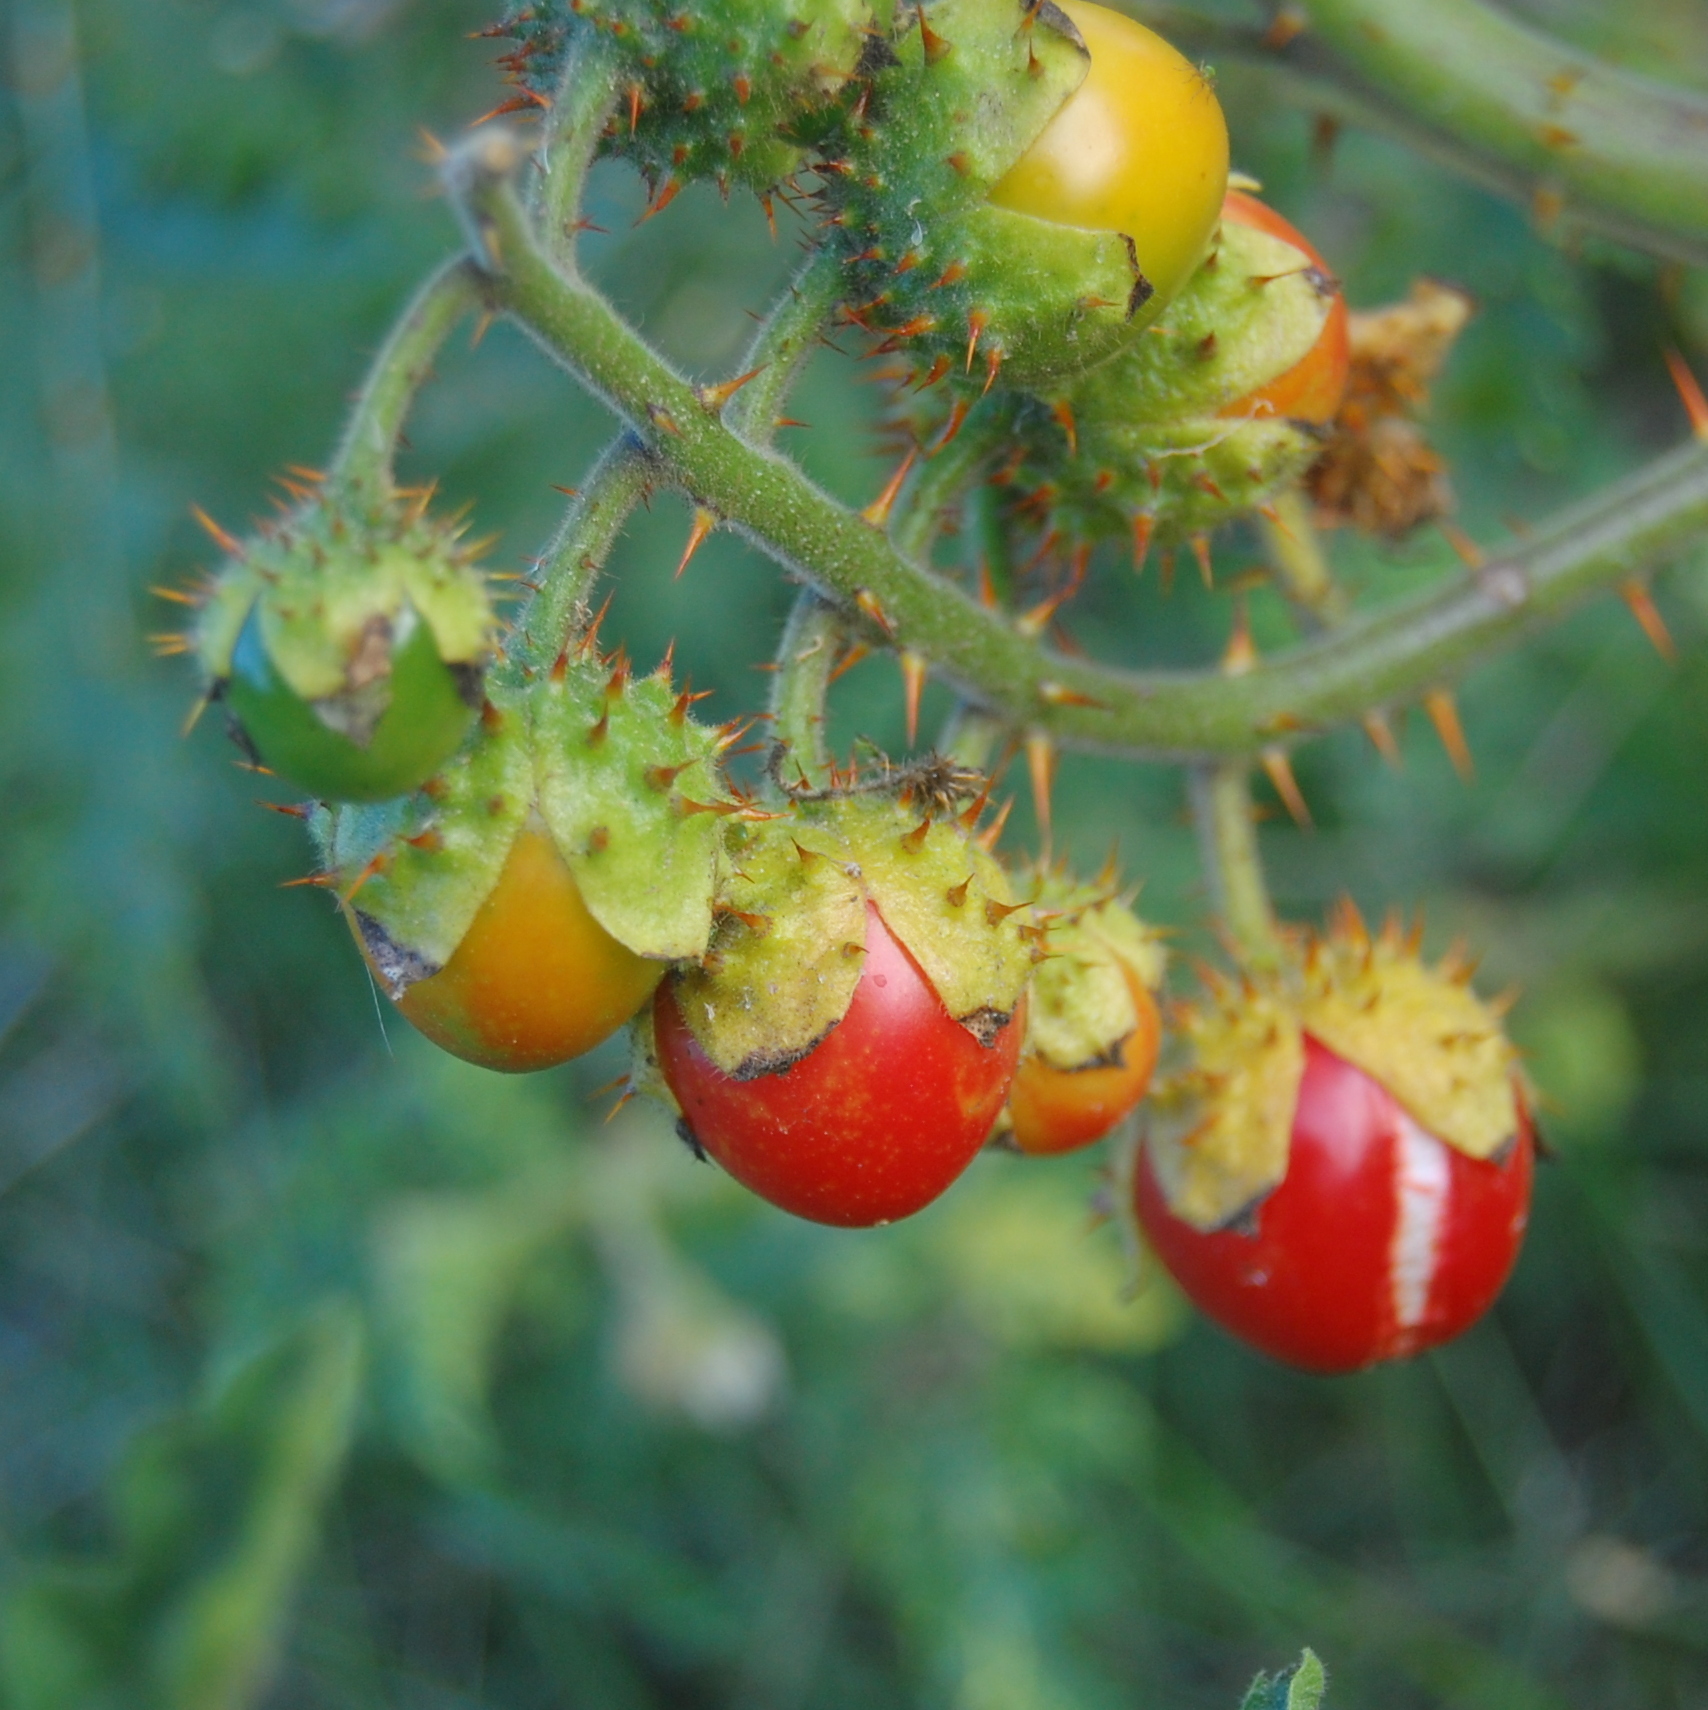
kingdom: Plantae
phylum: Tracheophyta
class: Magnoliopsida
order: Solanales
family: Solanaceae
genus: Solanum
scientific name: Solanum sisymbriifolium
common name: Red buffalo-bur
